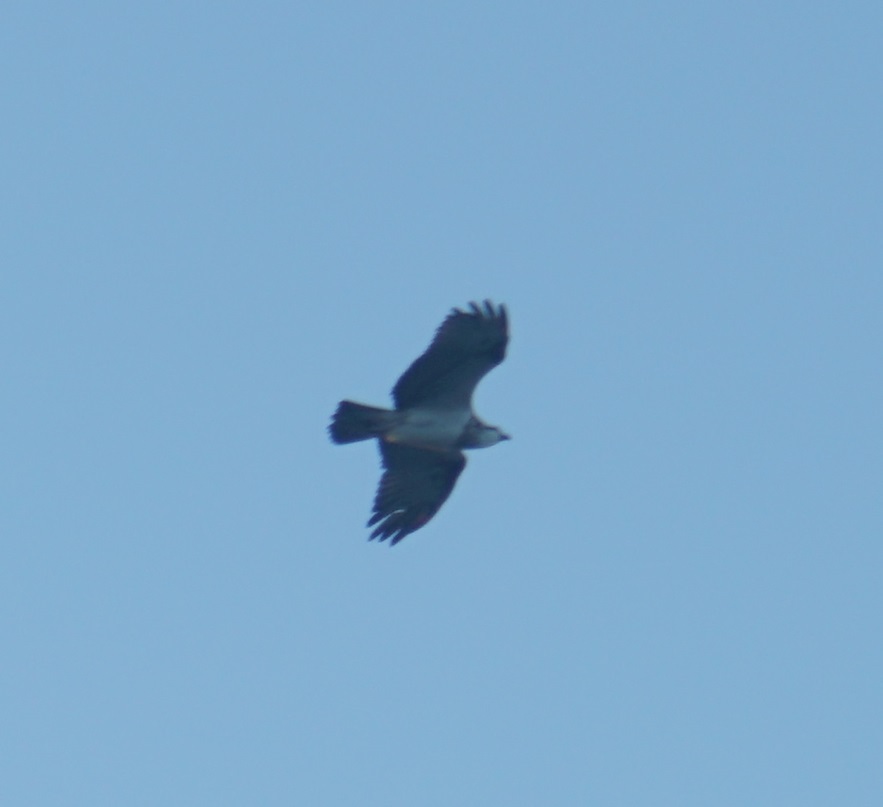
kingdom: Animalia
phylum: Chordata
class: Aves
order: Accipitriformes
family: Pandionidae
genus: Pandion
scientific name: Pandion haliaetus
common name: Osprey
